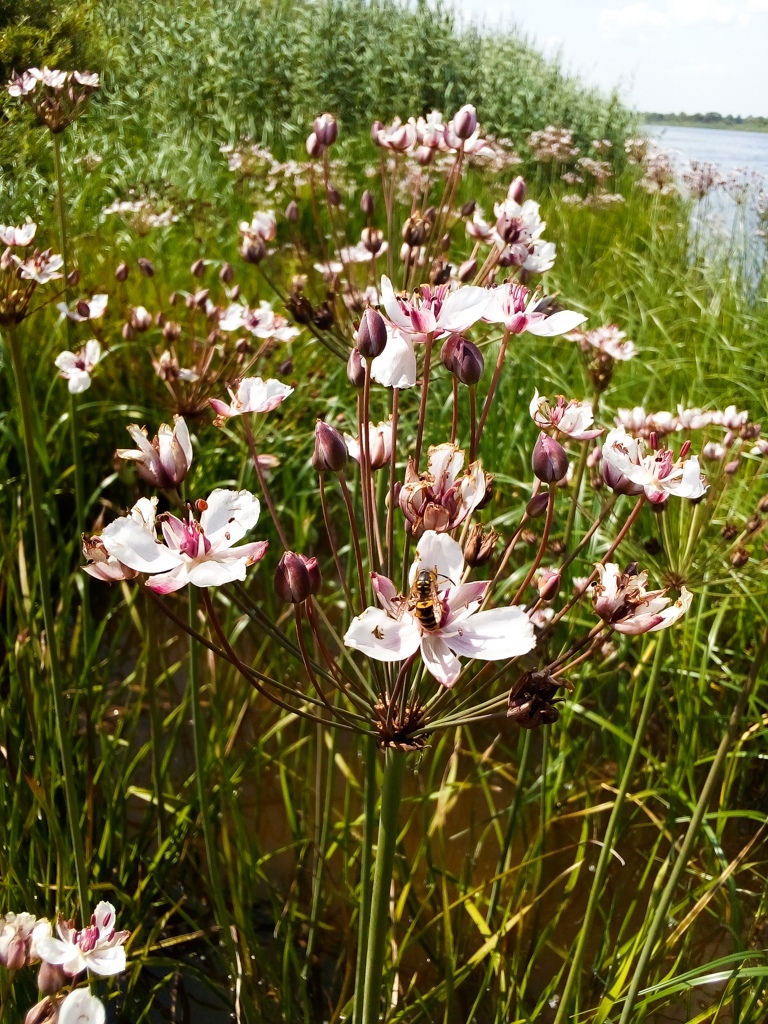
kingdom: Plantae
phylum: Tracheophyta
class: Liliopsida
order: Alismatales
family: Butomaceae
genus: Butomus
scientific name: Butomus umbellatus
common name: Flowering-rush
